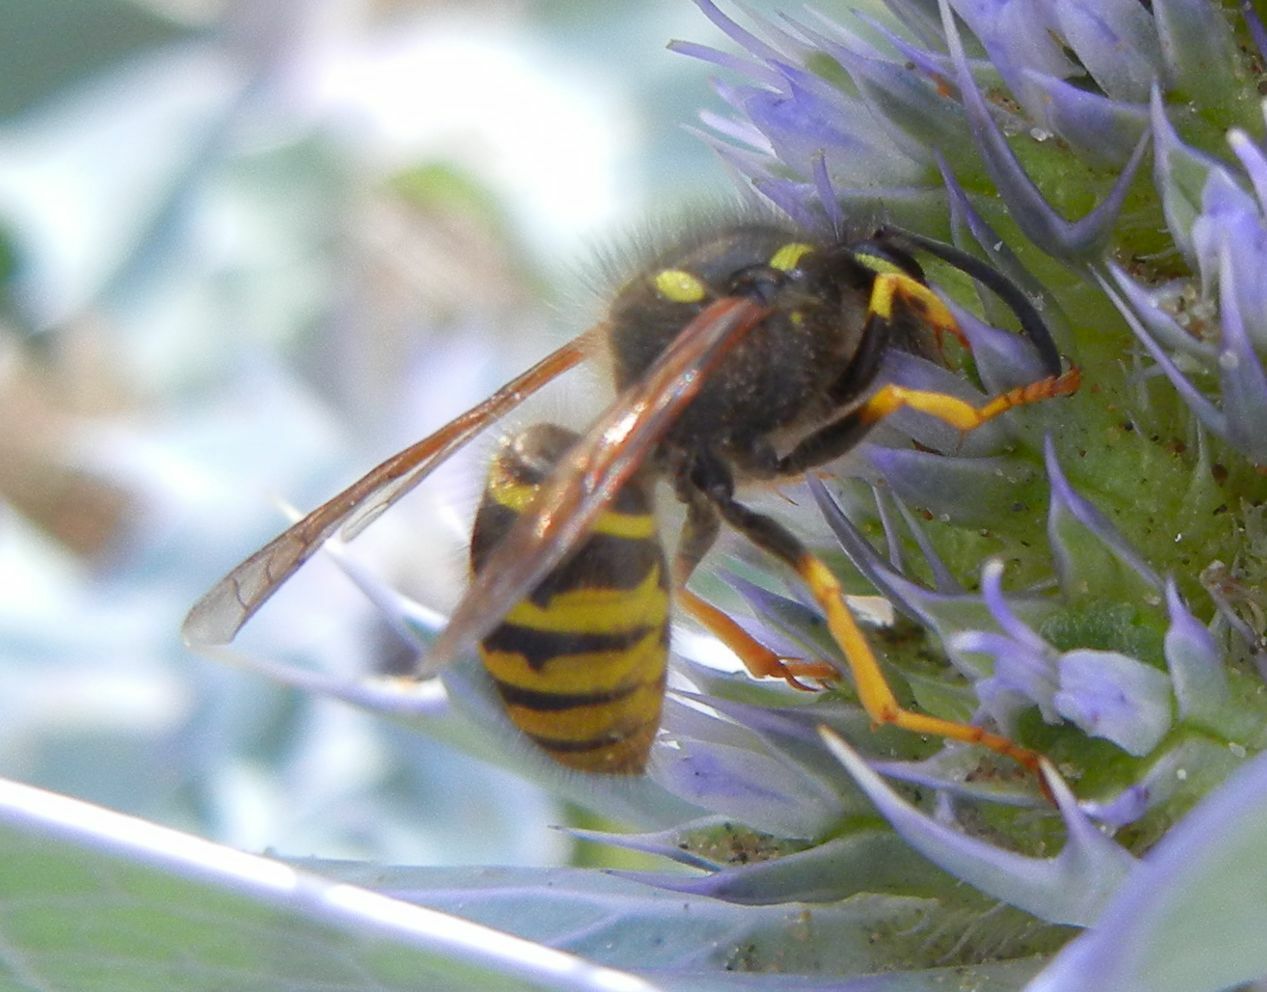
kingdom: Animalia
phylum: Arthropoda
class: Insecta
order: Hymenoptera
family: Vespidae
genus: Dolichovespula
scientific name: Dolichovespula sylvestris
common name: Tree wasp
